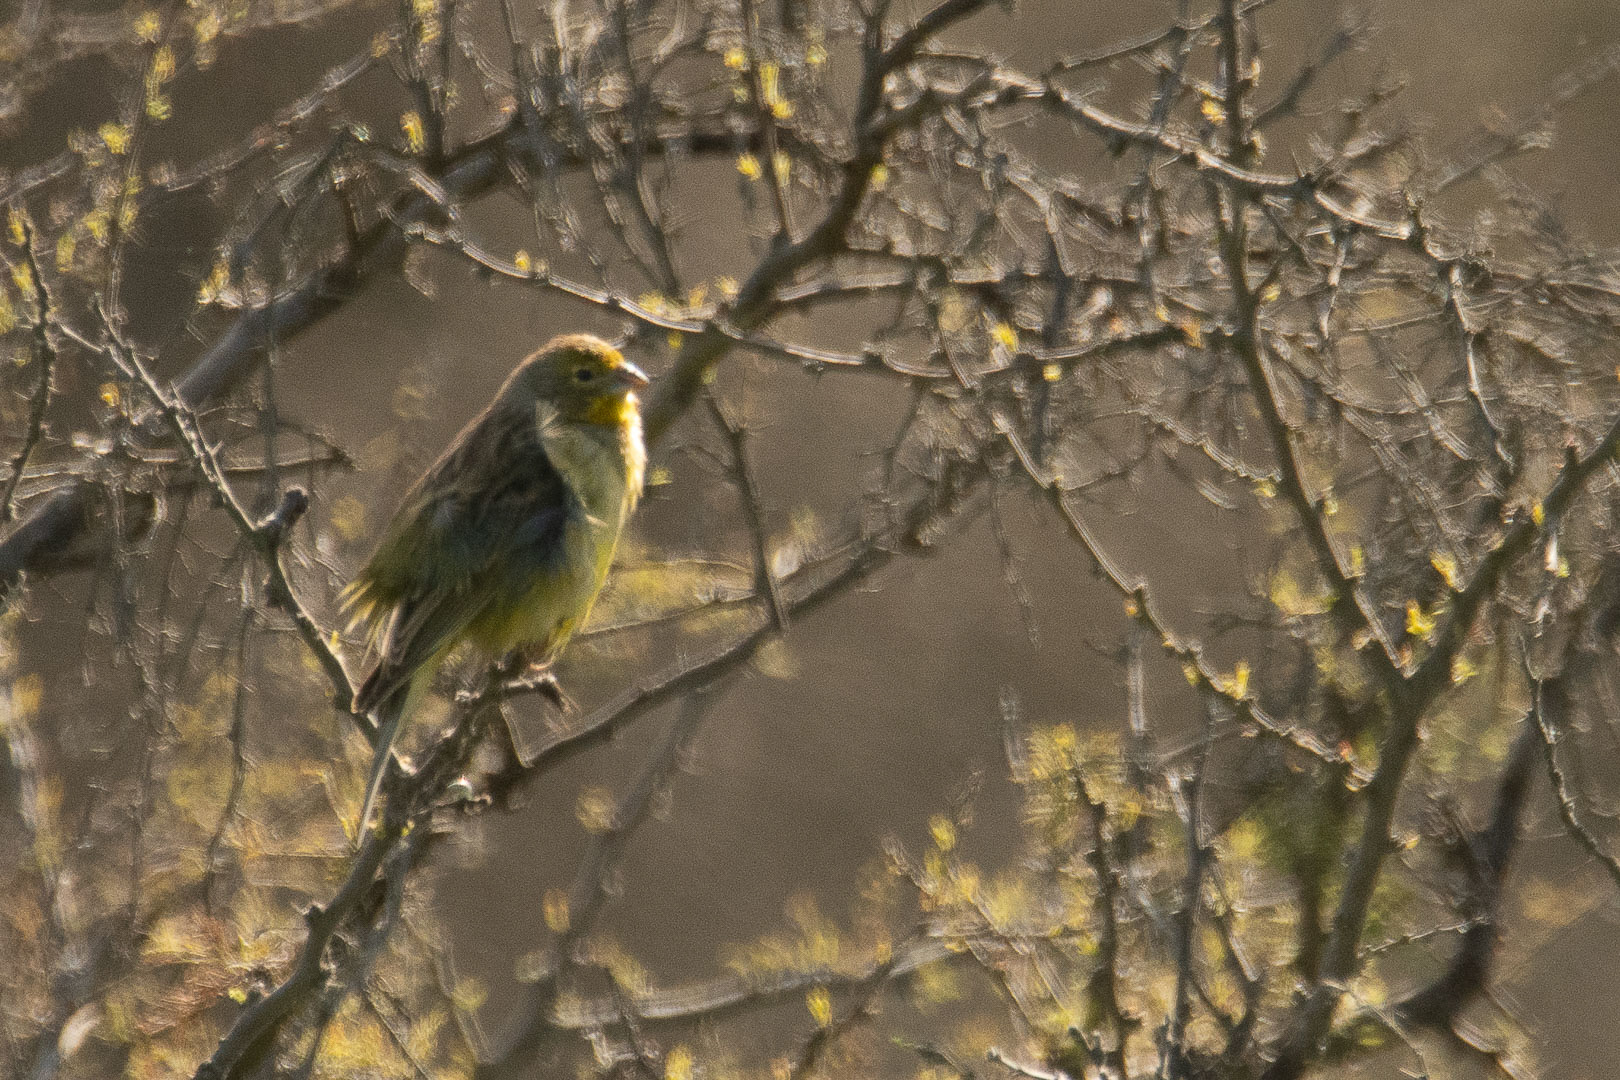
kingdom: Animalia
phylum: Chordata
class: Aves
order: Passeriformes
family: Thraupidae
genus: Sicalis
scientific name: Sicalis luteola
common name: Grassland yellow-finch
